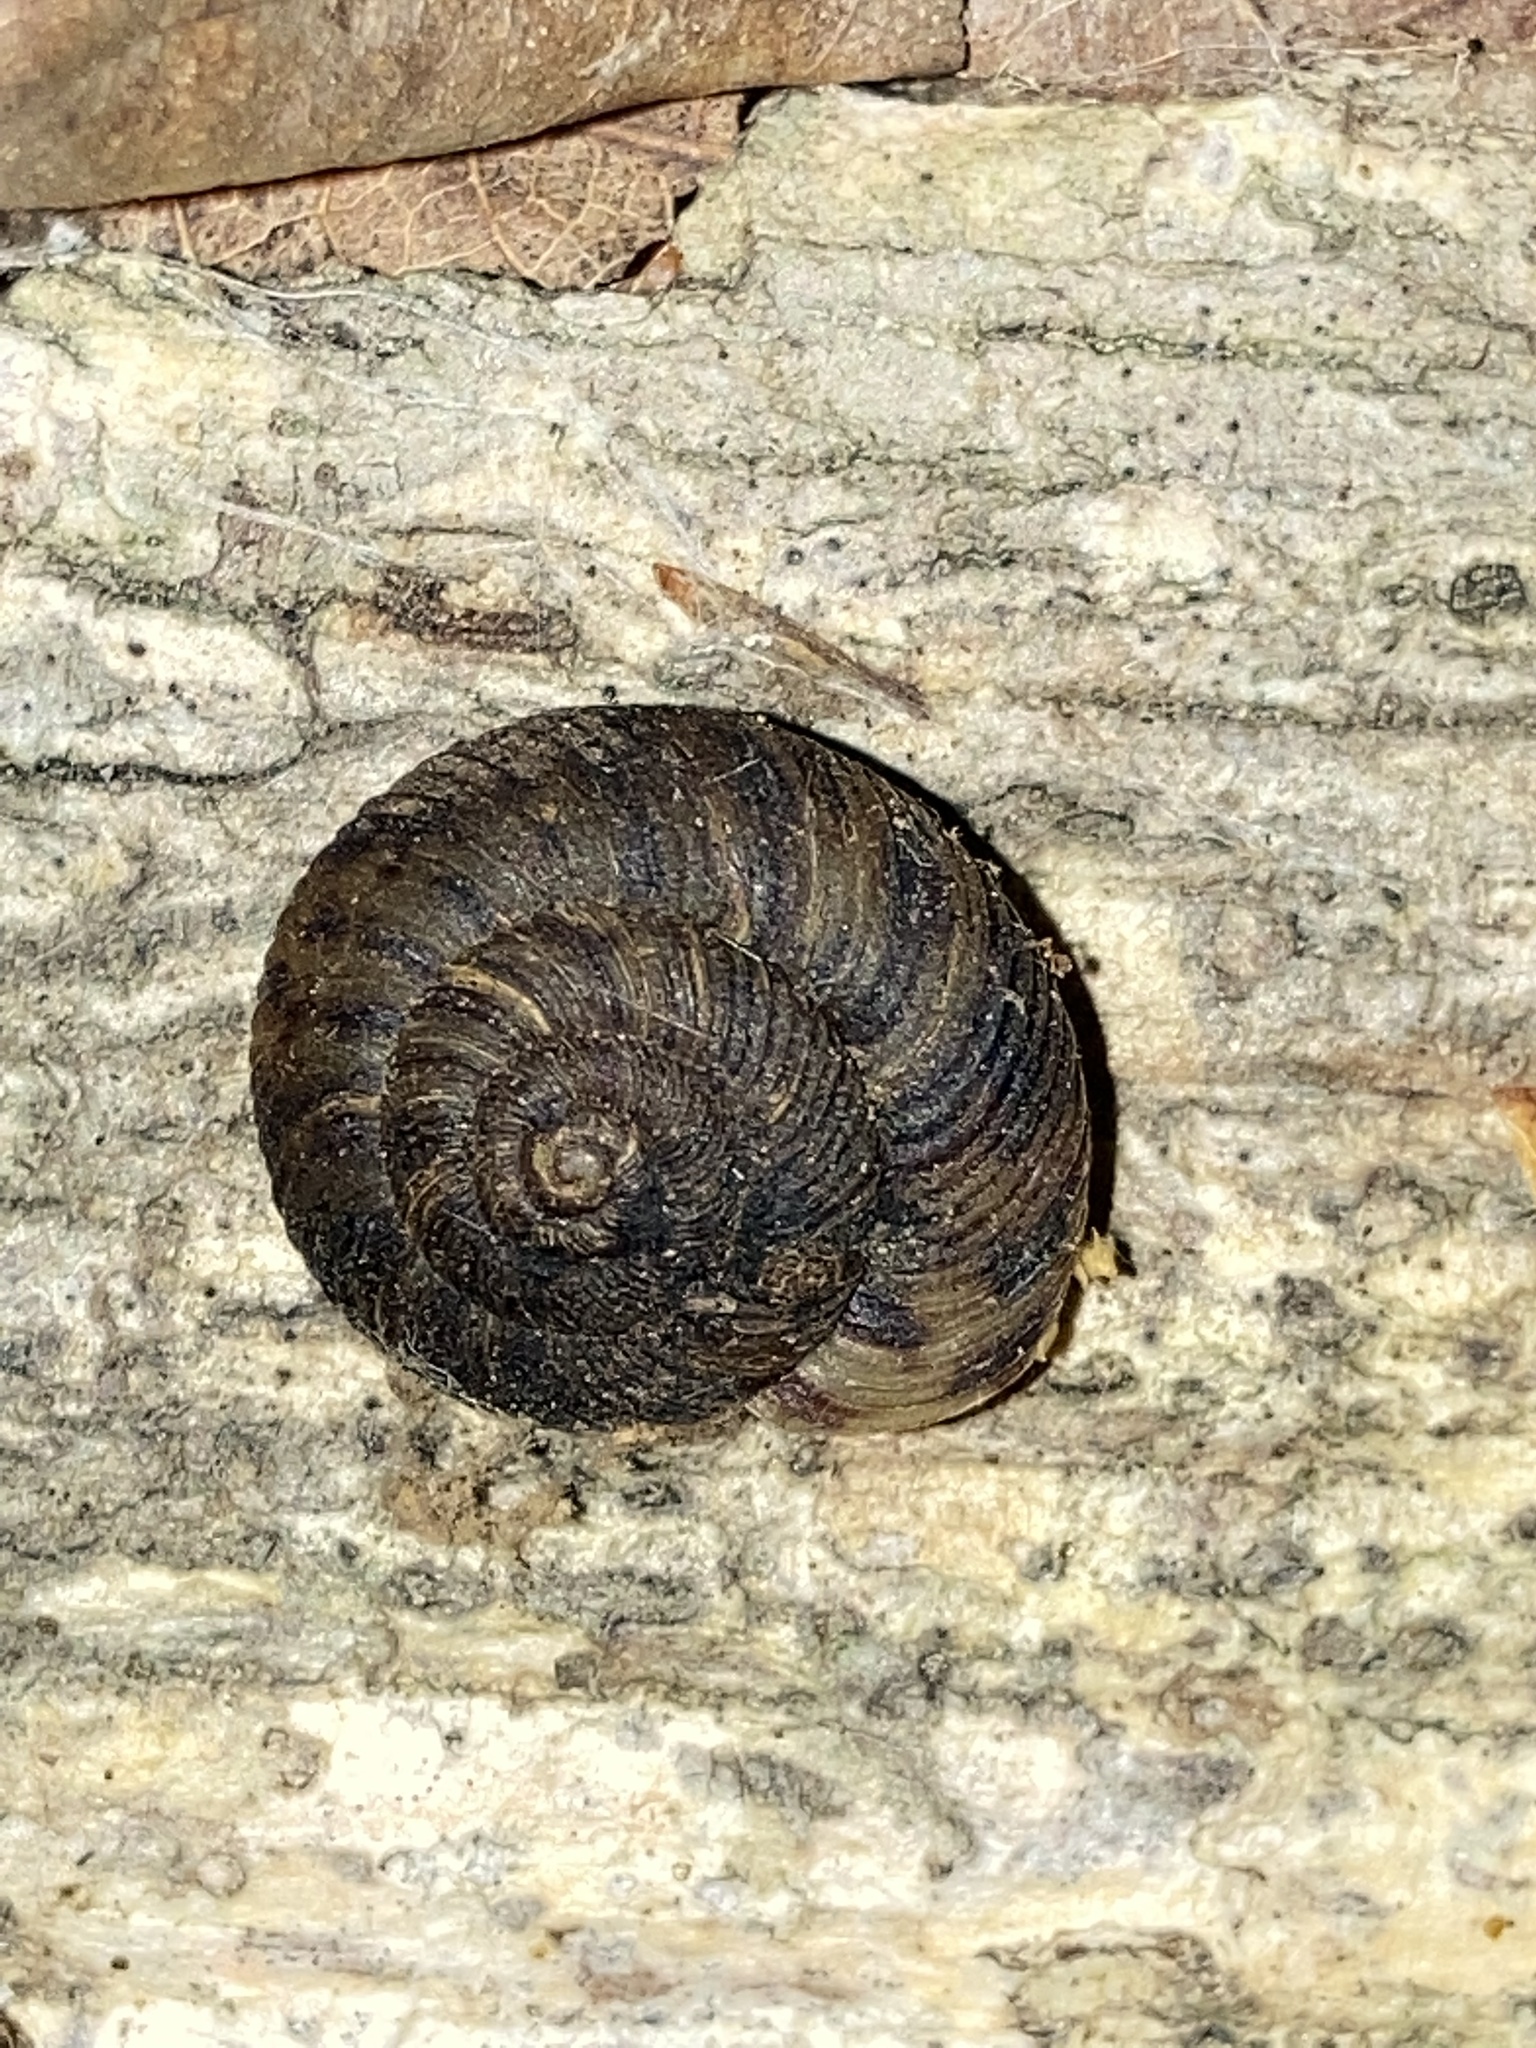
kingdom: Animalia
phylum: Mollusca
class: Gastropoda
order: Stylommatophora
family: Discidae
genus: Anguispira
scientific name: Anguispira alternata
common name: Flamed tigersnail
